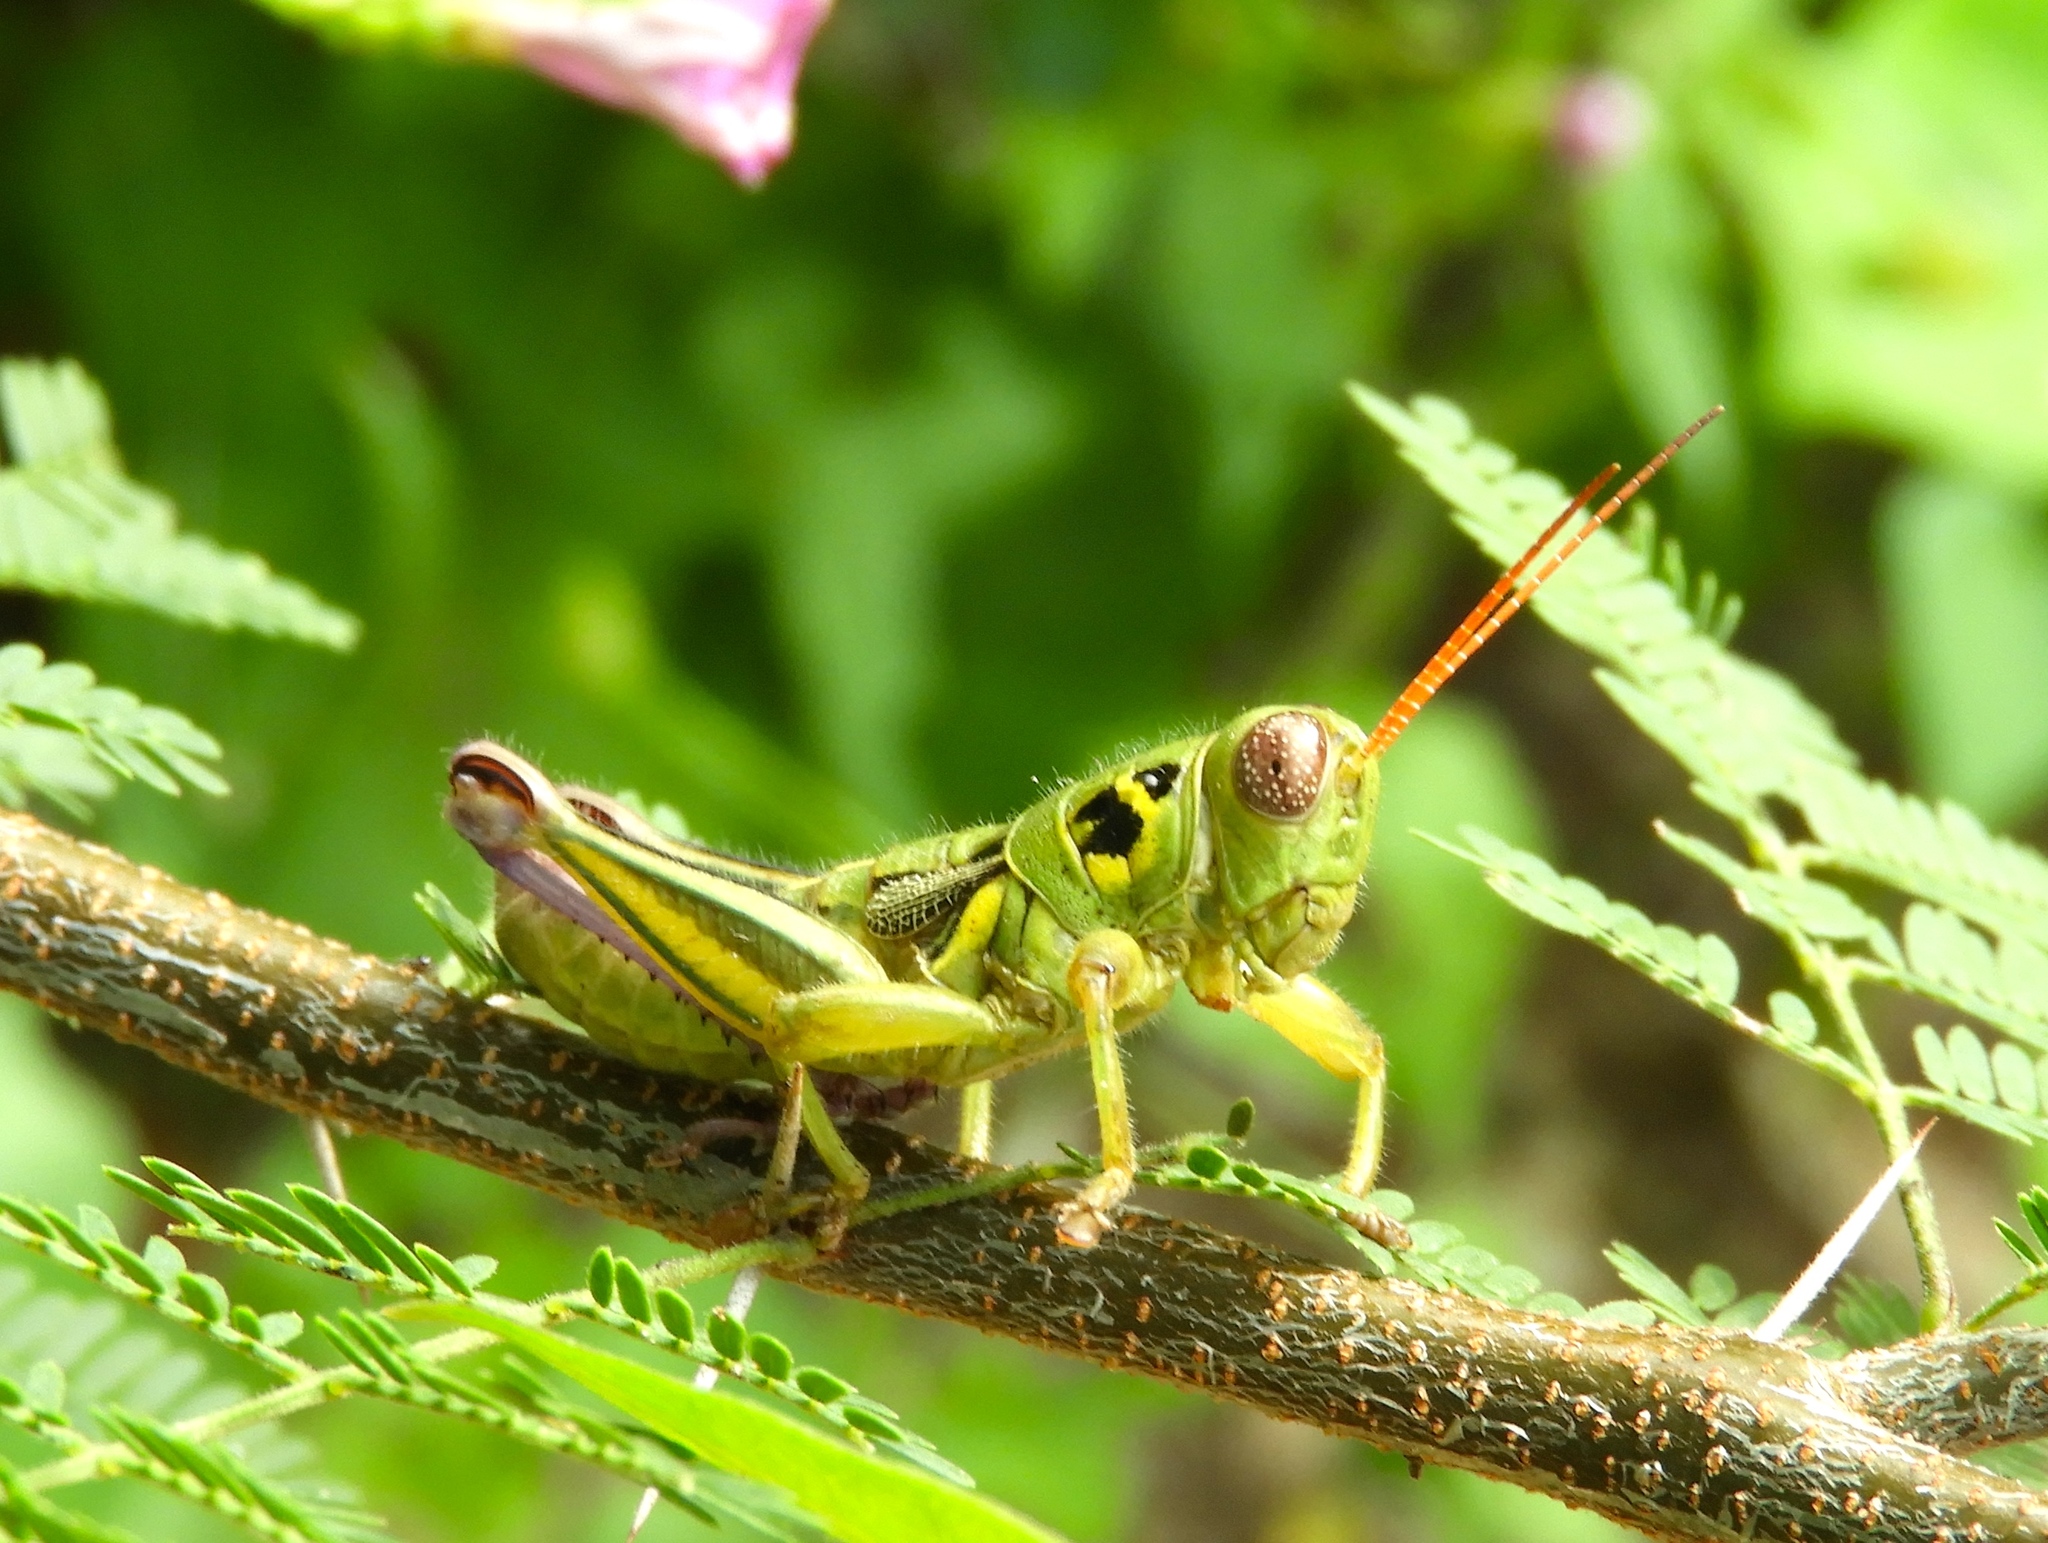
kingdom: Animalia
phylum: Arthropoda
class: Insecta
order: Orthoptera
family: Acrididae
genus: Barytettix
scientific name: Barytettix
